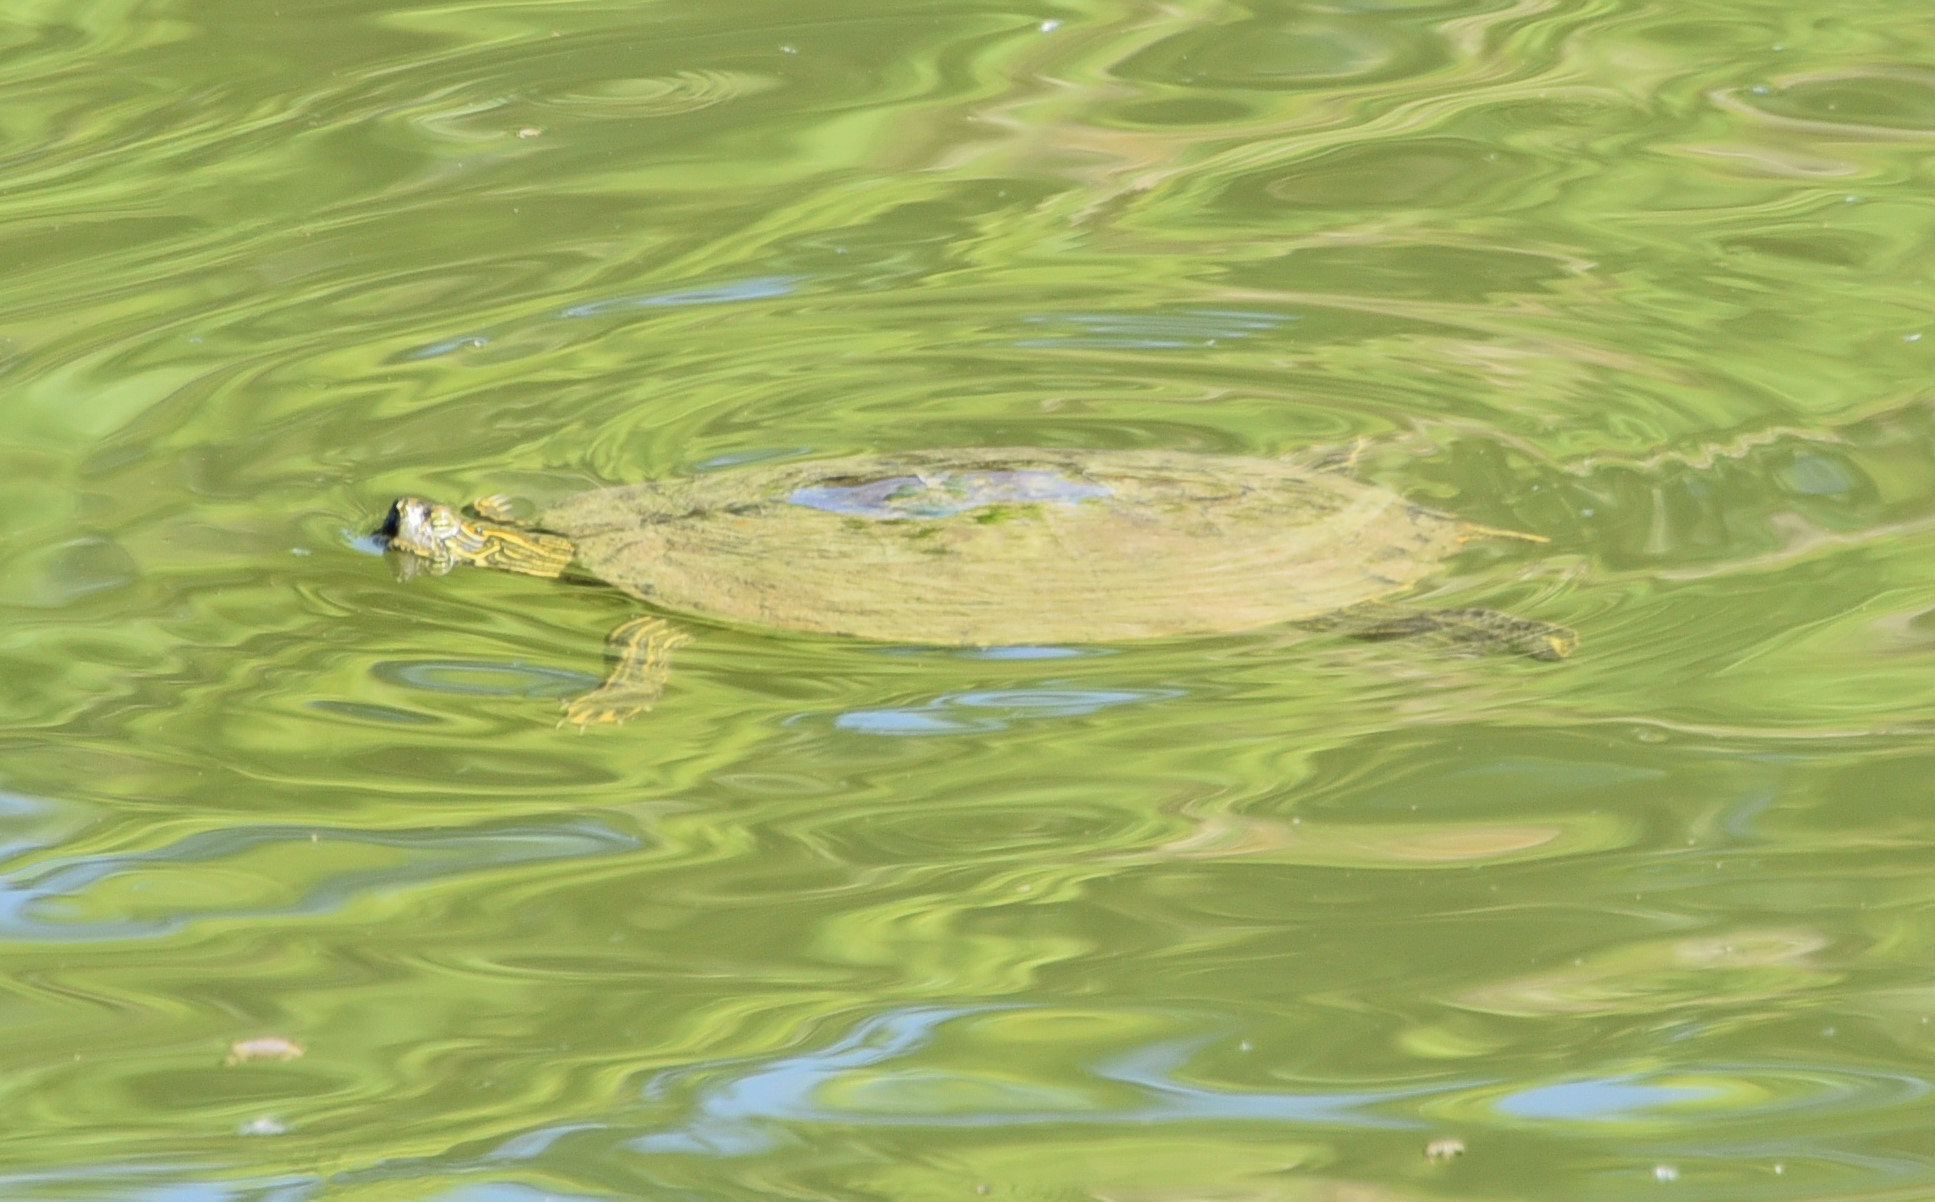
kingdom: Animalia
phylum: Chordata
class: Testudines
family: Emydidae
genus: Pseudemys
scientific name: Pseudemys texana
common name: Texas river cooter
